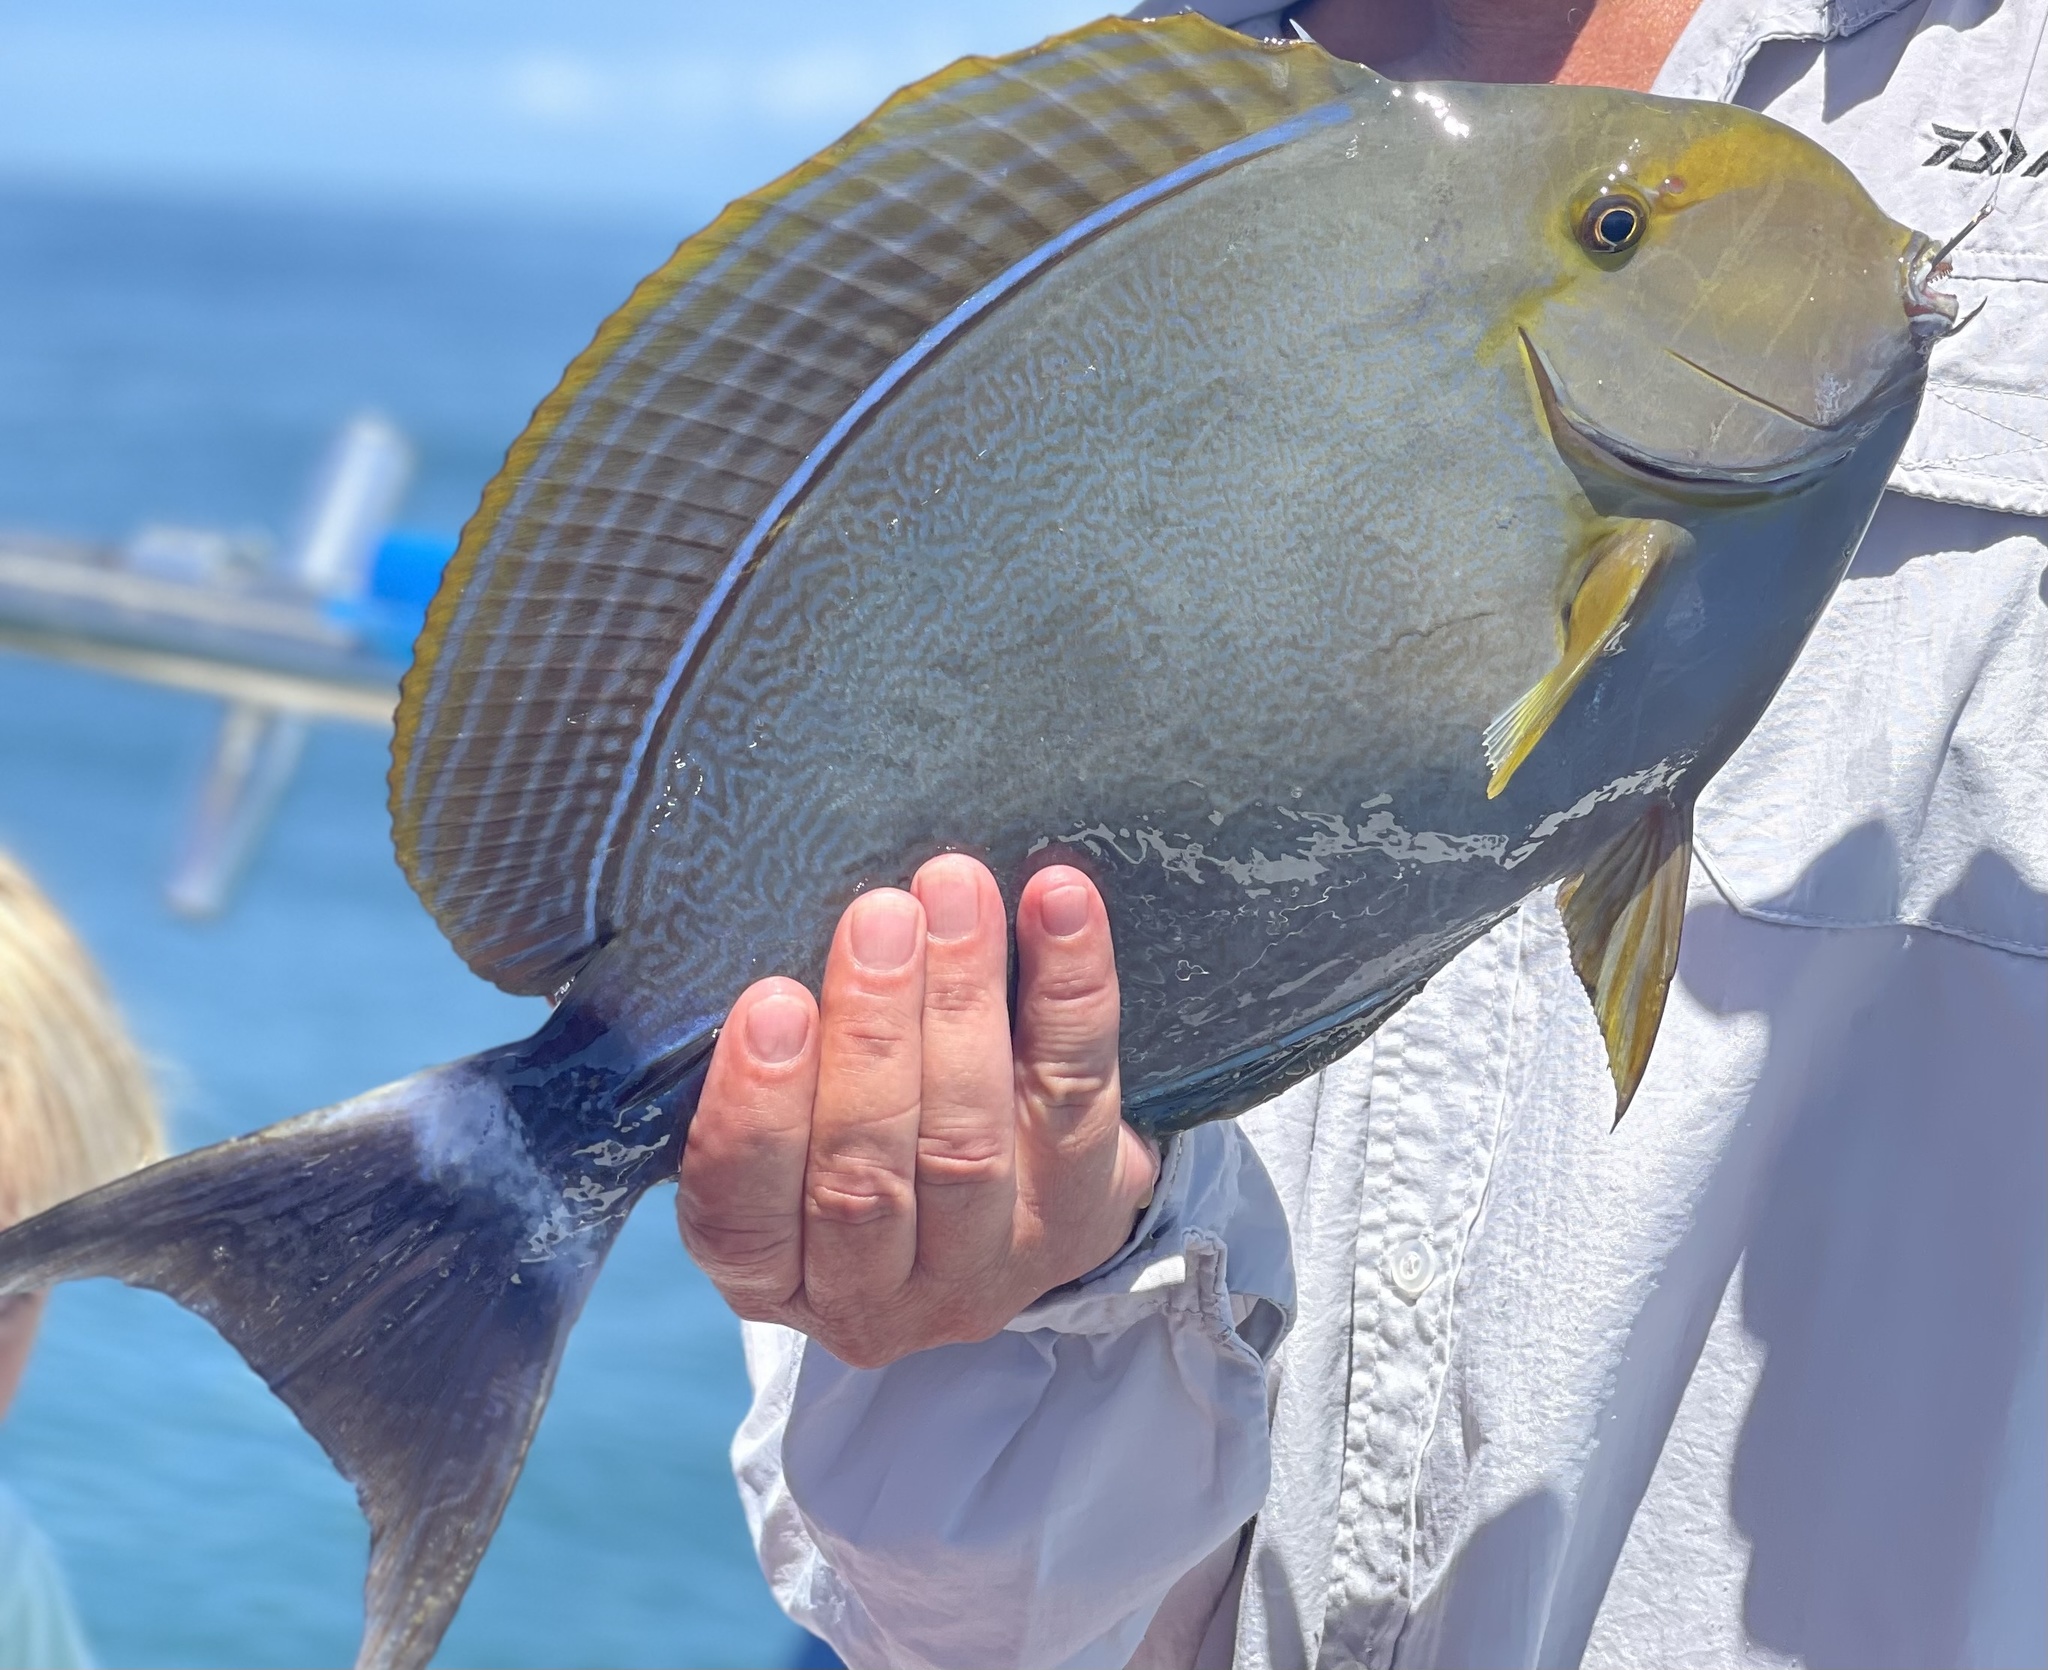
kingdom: Animalia
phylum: Chordata
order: Perciformes
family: Acanthuridae
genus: Acanthurus
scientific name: Acanthurus xanthopterus
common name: Cuvier's surgeonfish
